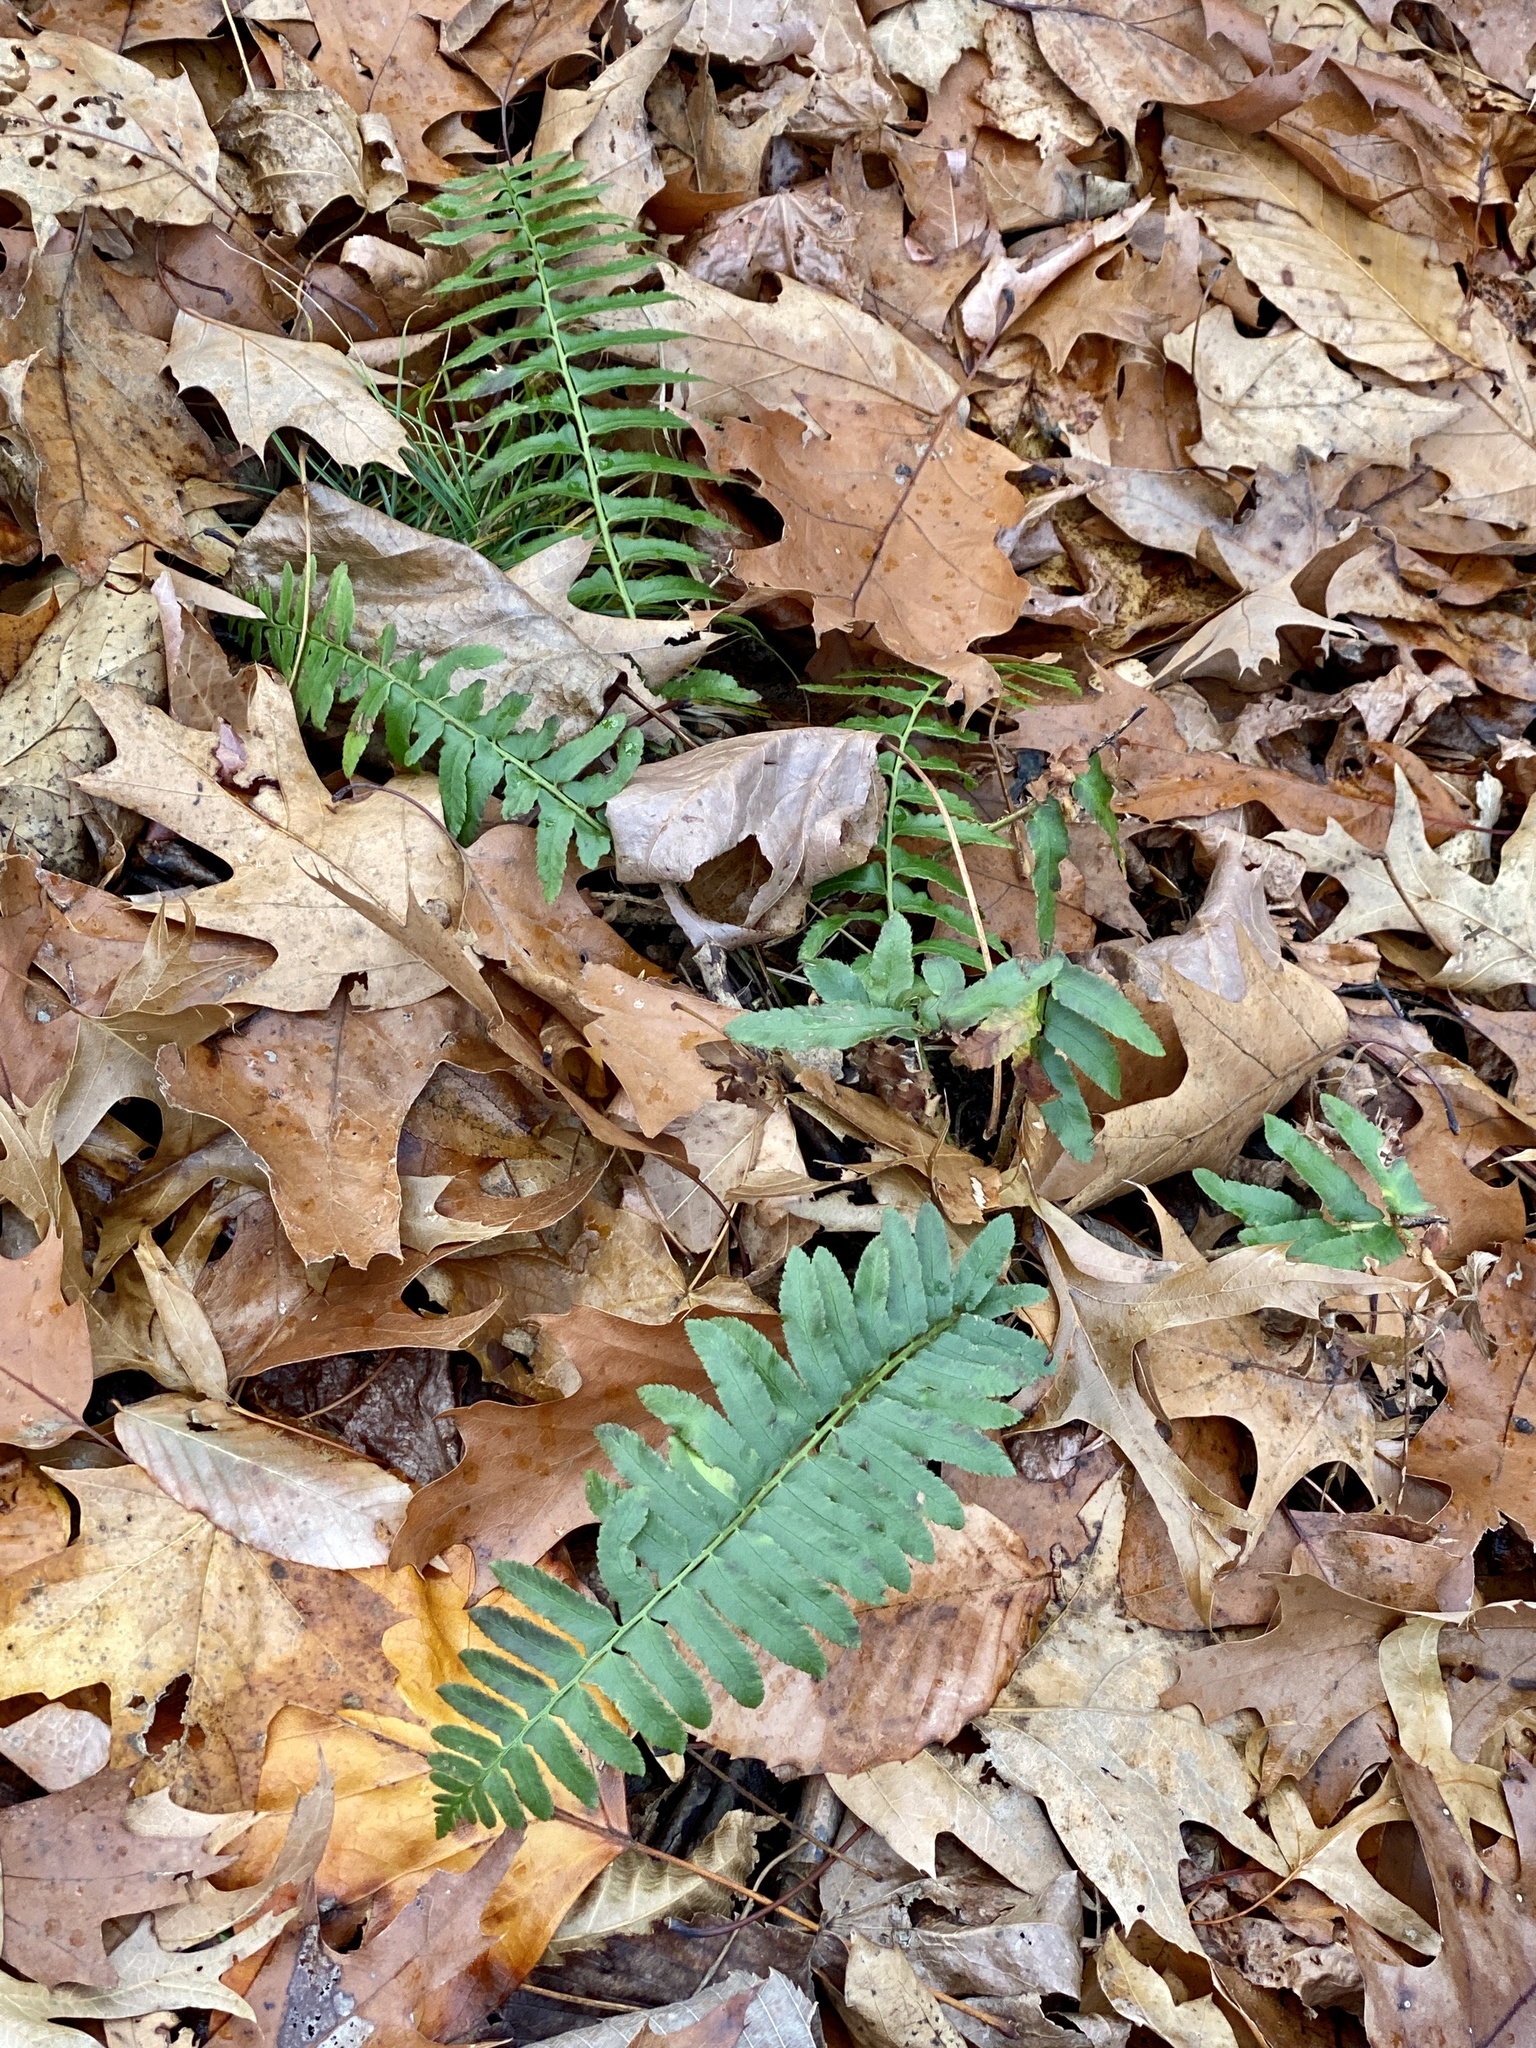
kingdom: Plantae
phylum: Tracheophyta
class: Polypodiopsida
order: Polypodiales
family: Dryopteridaceae
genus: Polystichum
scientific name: Polystichum acrostichoides
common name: Christmas fern
